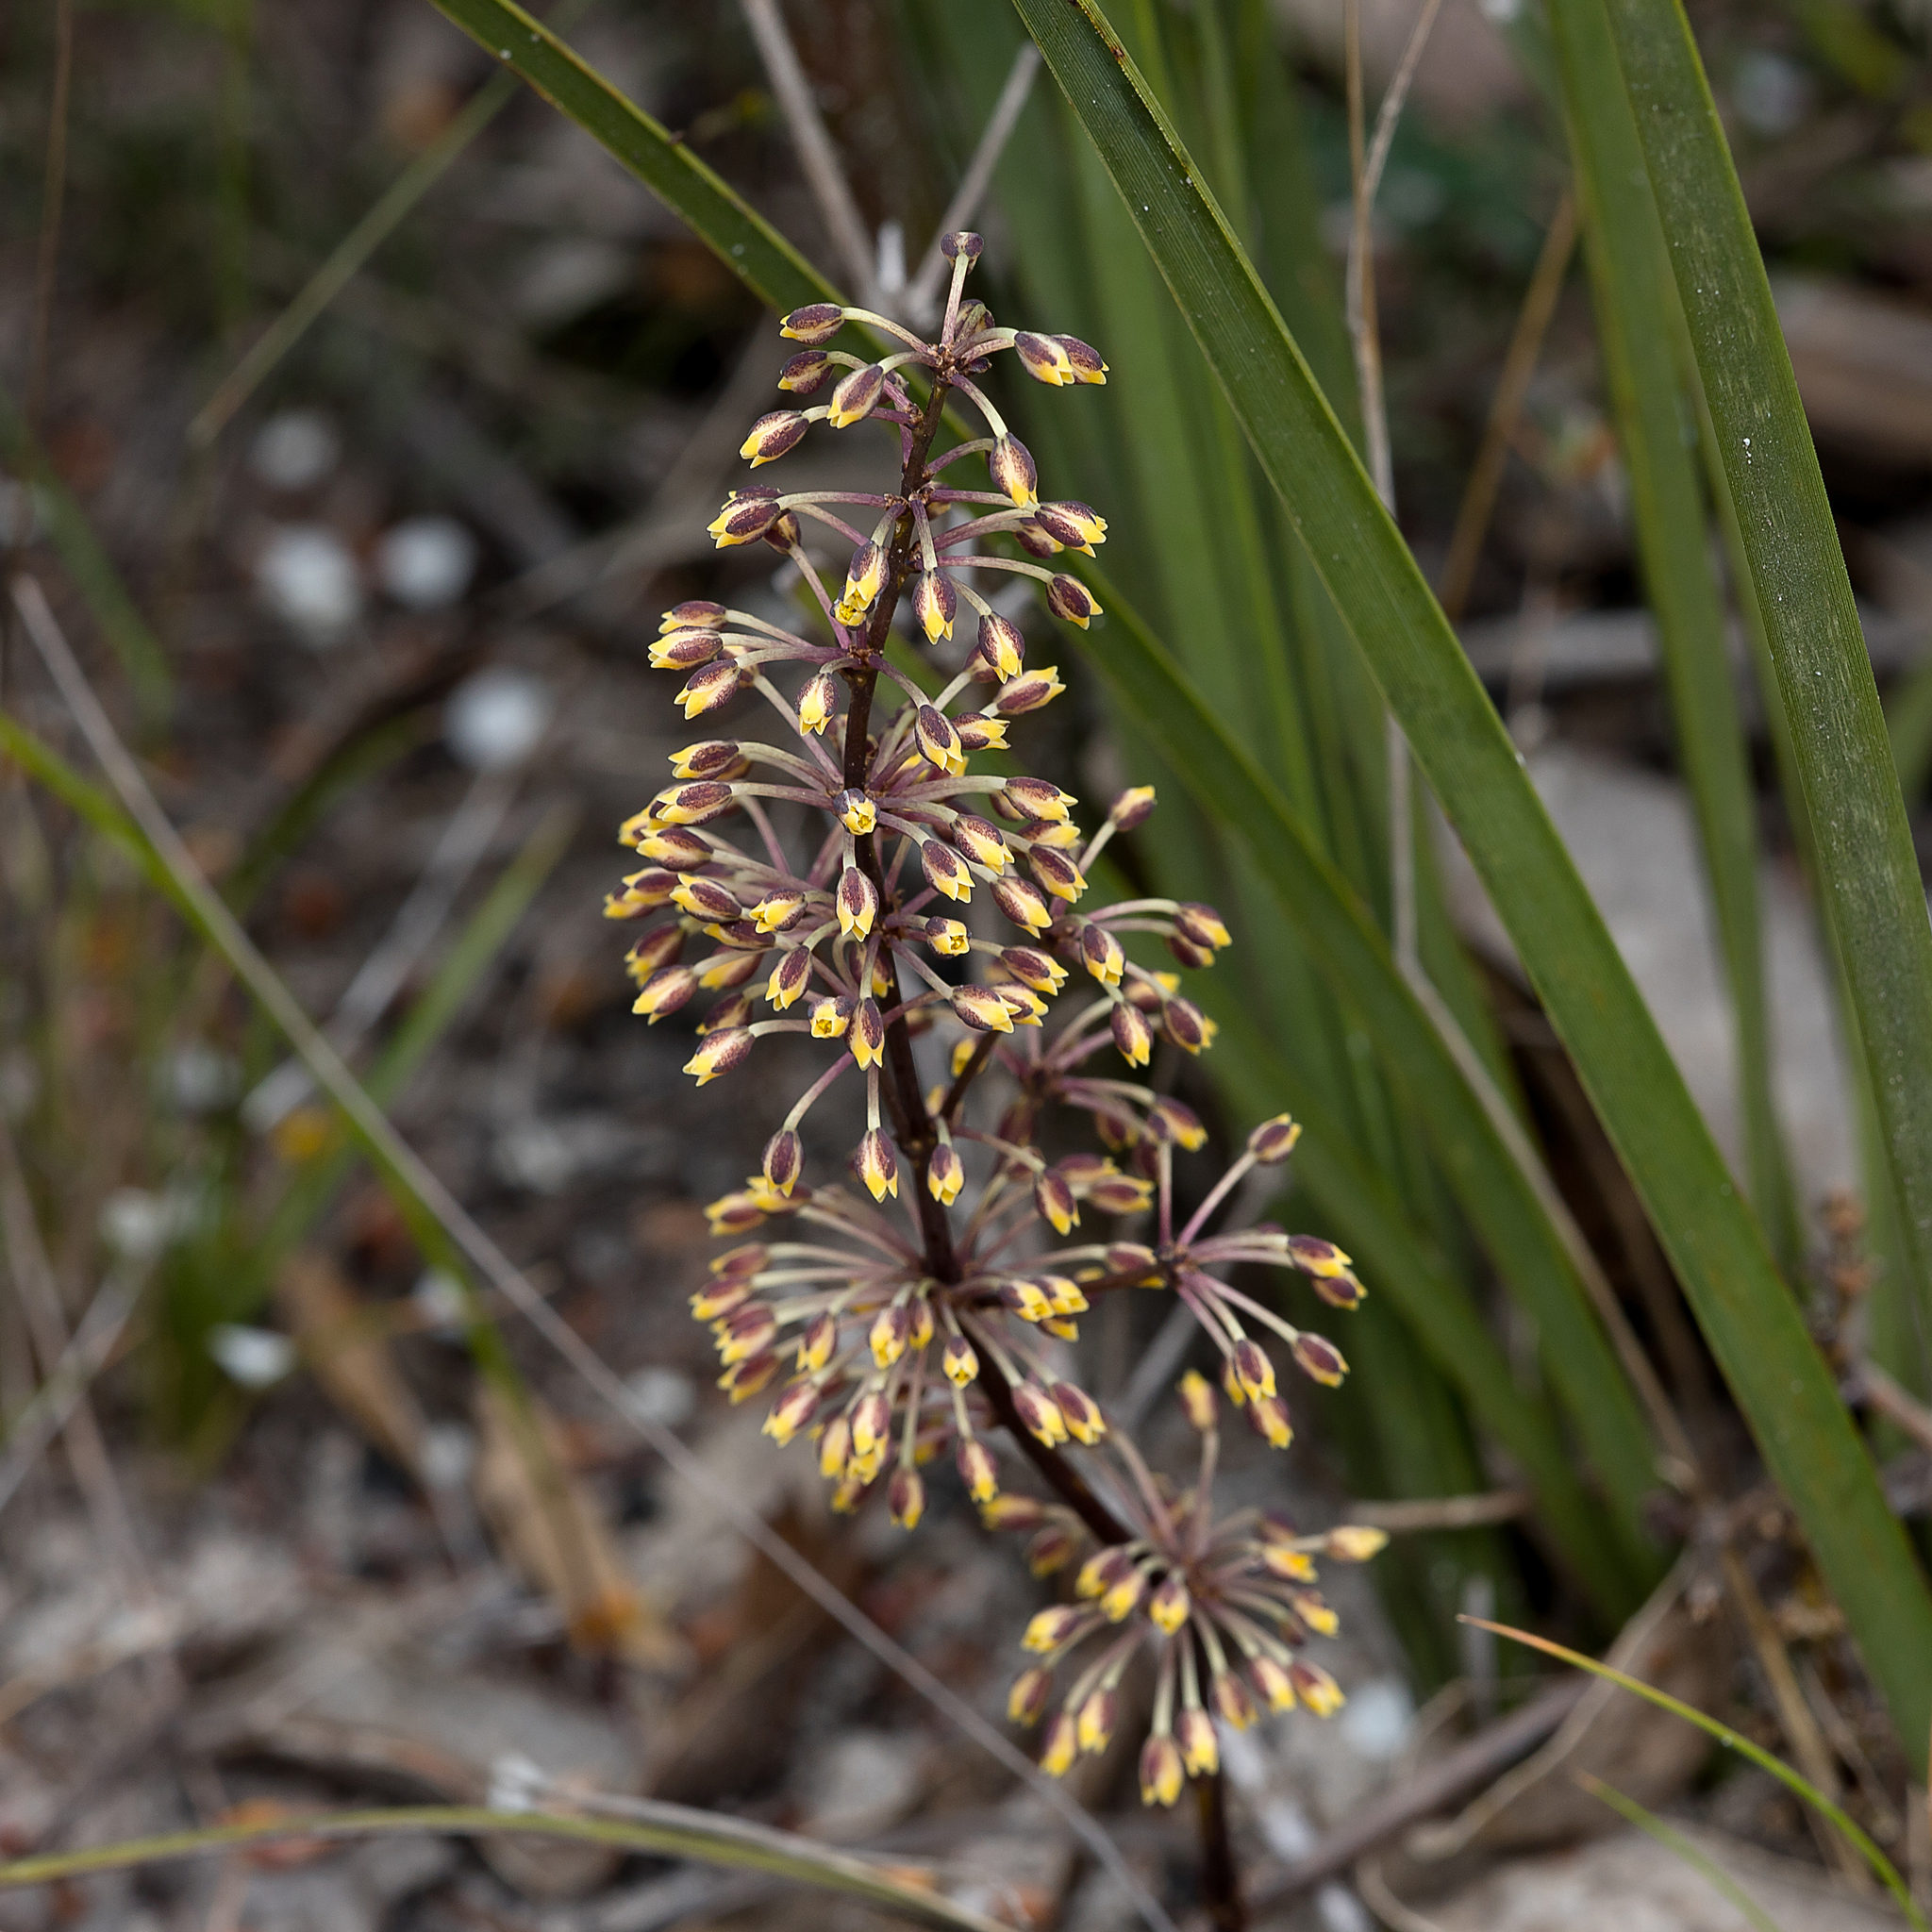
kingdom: Plantae
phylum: Tracheophyta
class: Liliopsida
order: Asparagales
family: Asparagaceae
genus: Lomandra
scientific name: Lomandra multiflora
